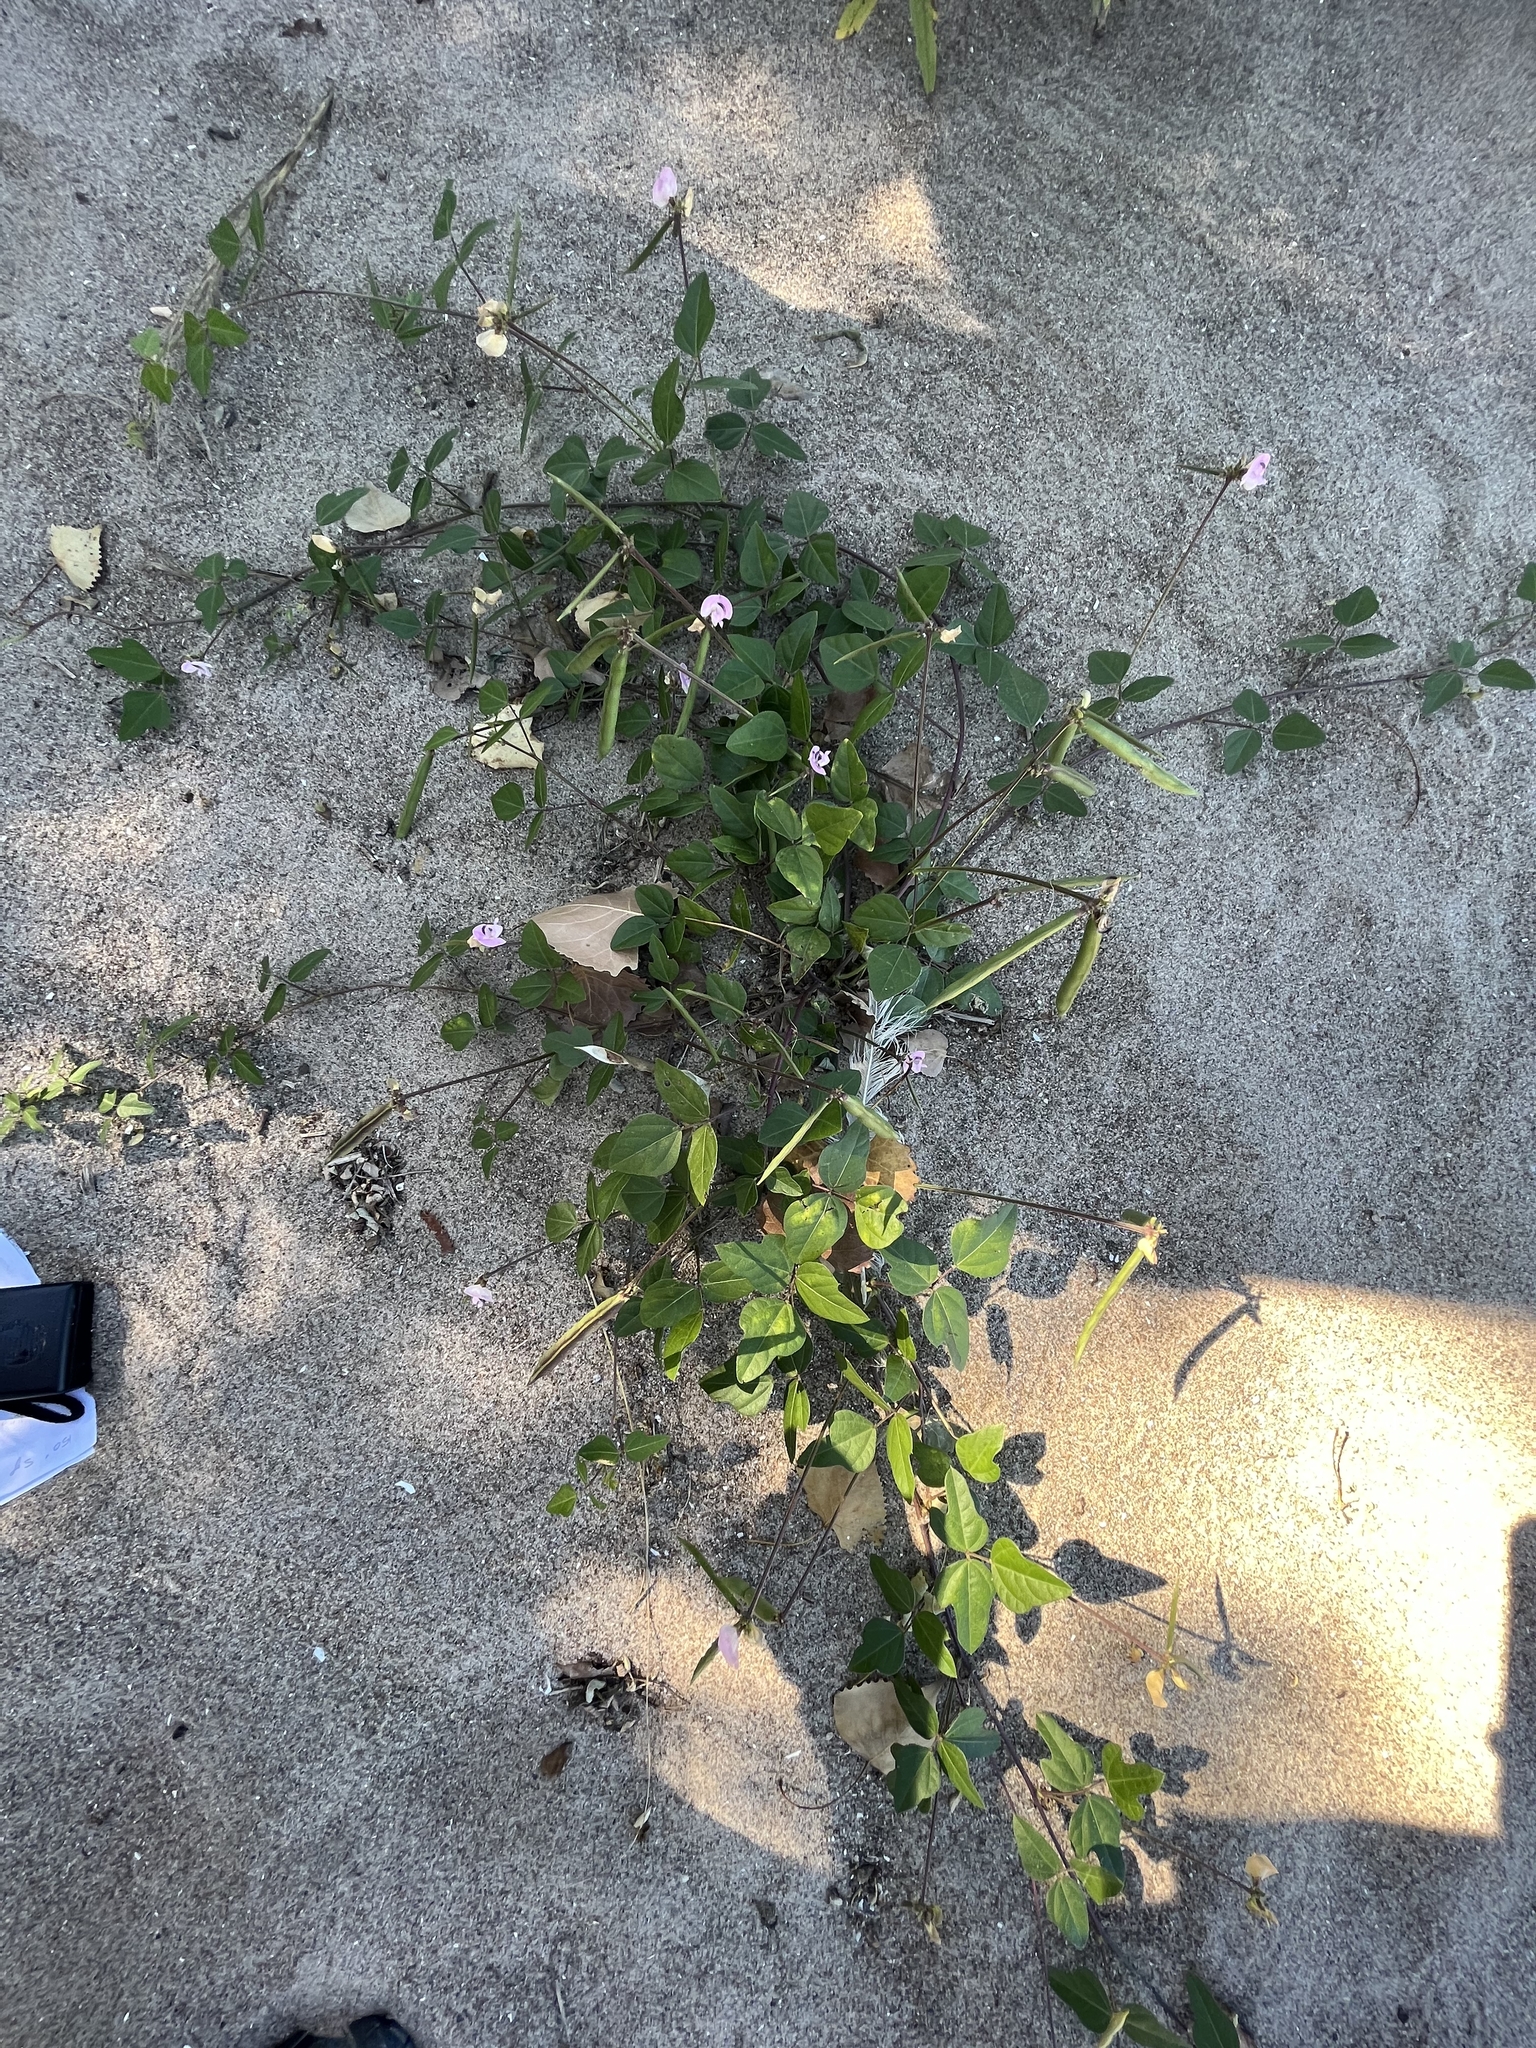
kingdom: Plantae
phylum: Tracheophyta
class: Magnoliopsida
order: Fabales
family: Fabaceae
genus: Strophostyles
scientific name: Strophostyles helvola
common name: Trailing wild bean
